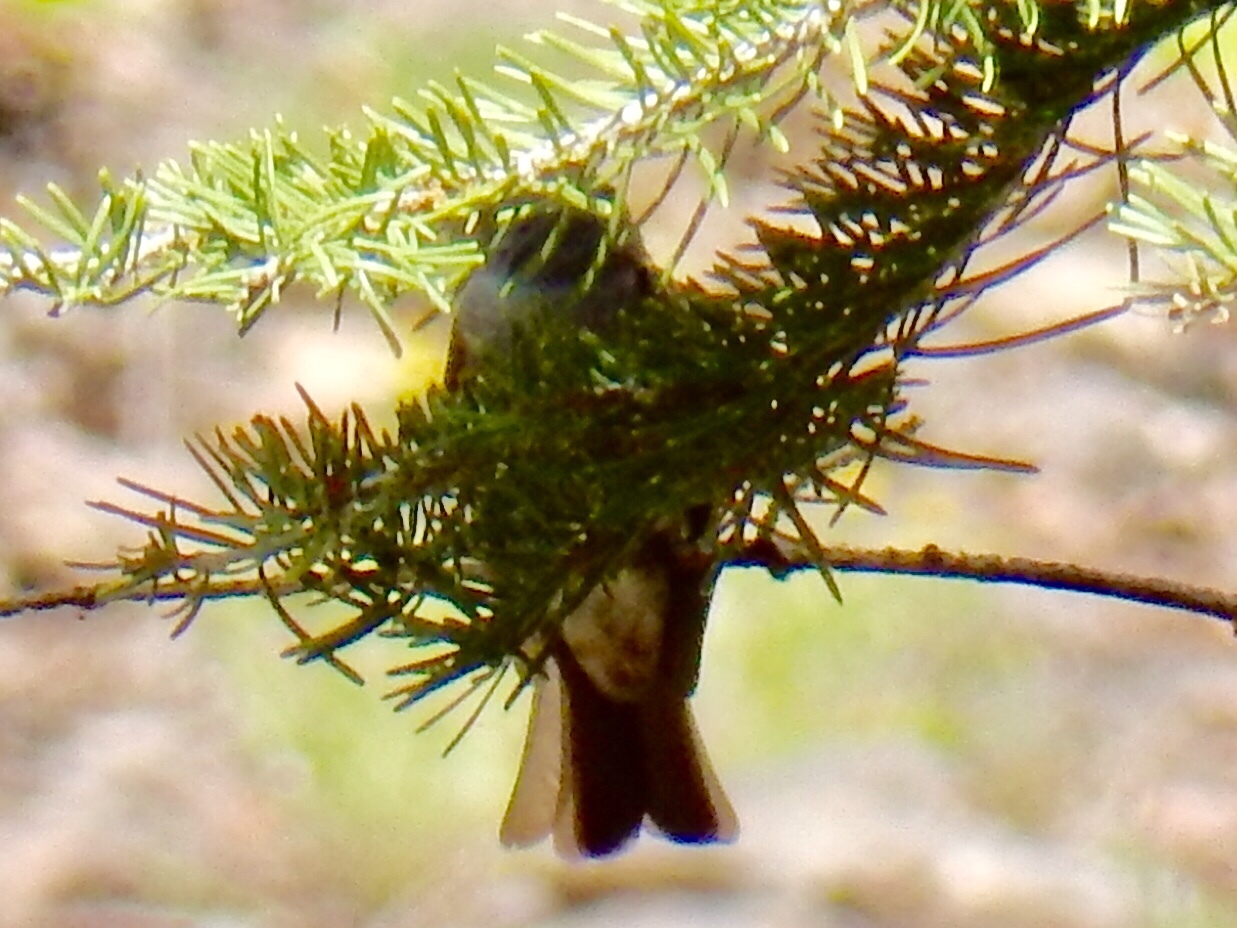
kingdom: Animalia
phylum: Chordata
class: Aves
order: Passeriformes
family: Polioptilidae
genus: Polioptila
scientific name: Polioptila caerulea
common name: Blue-gray gnatcatcher
